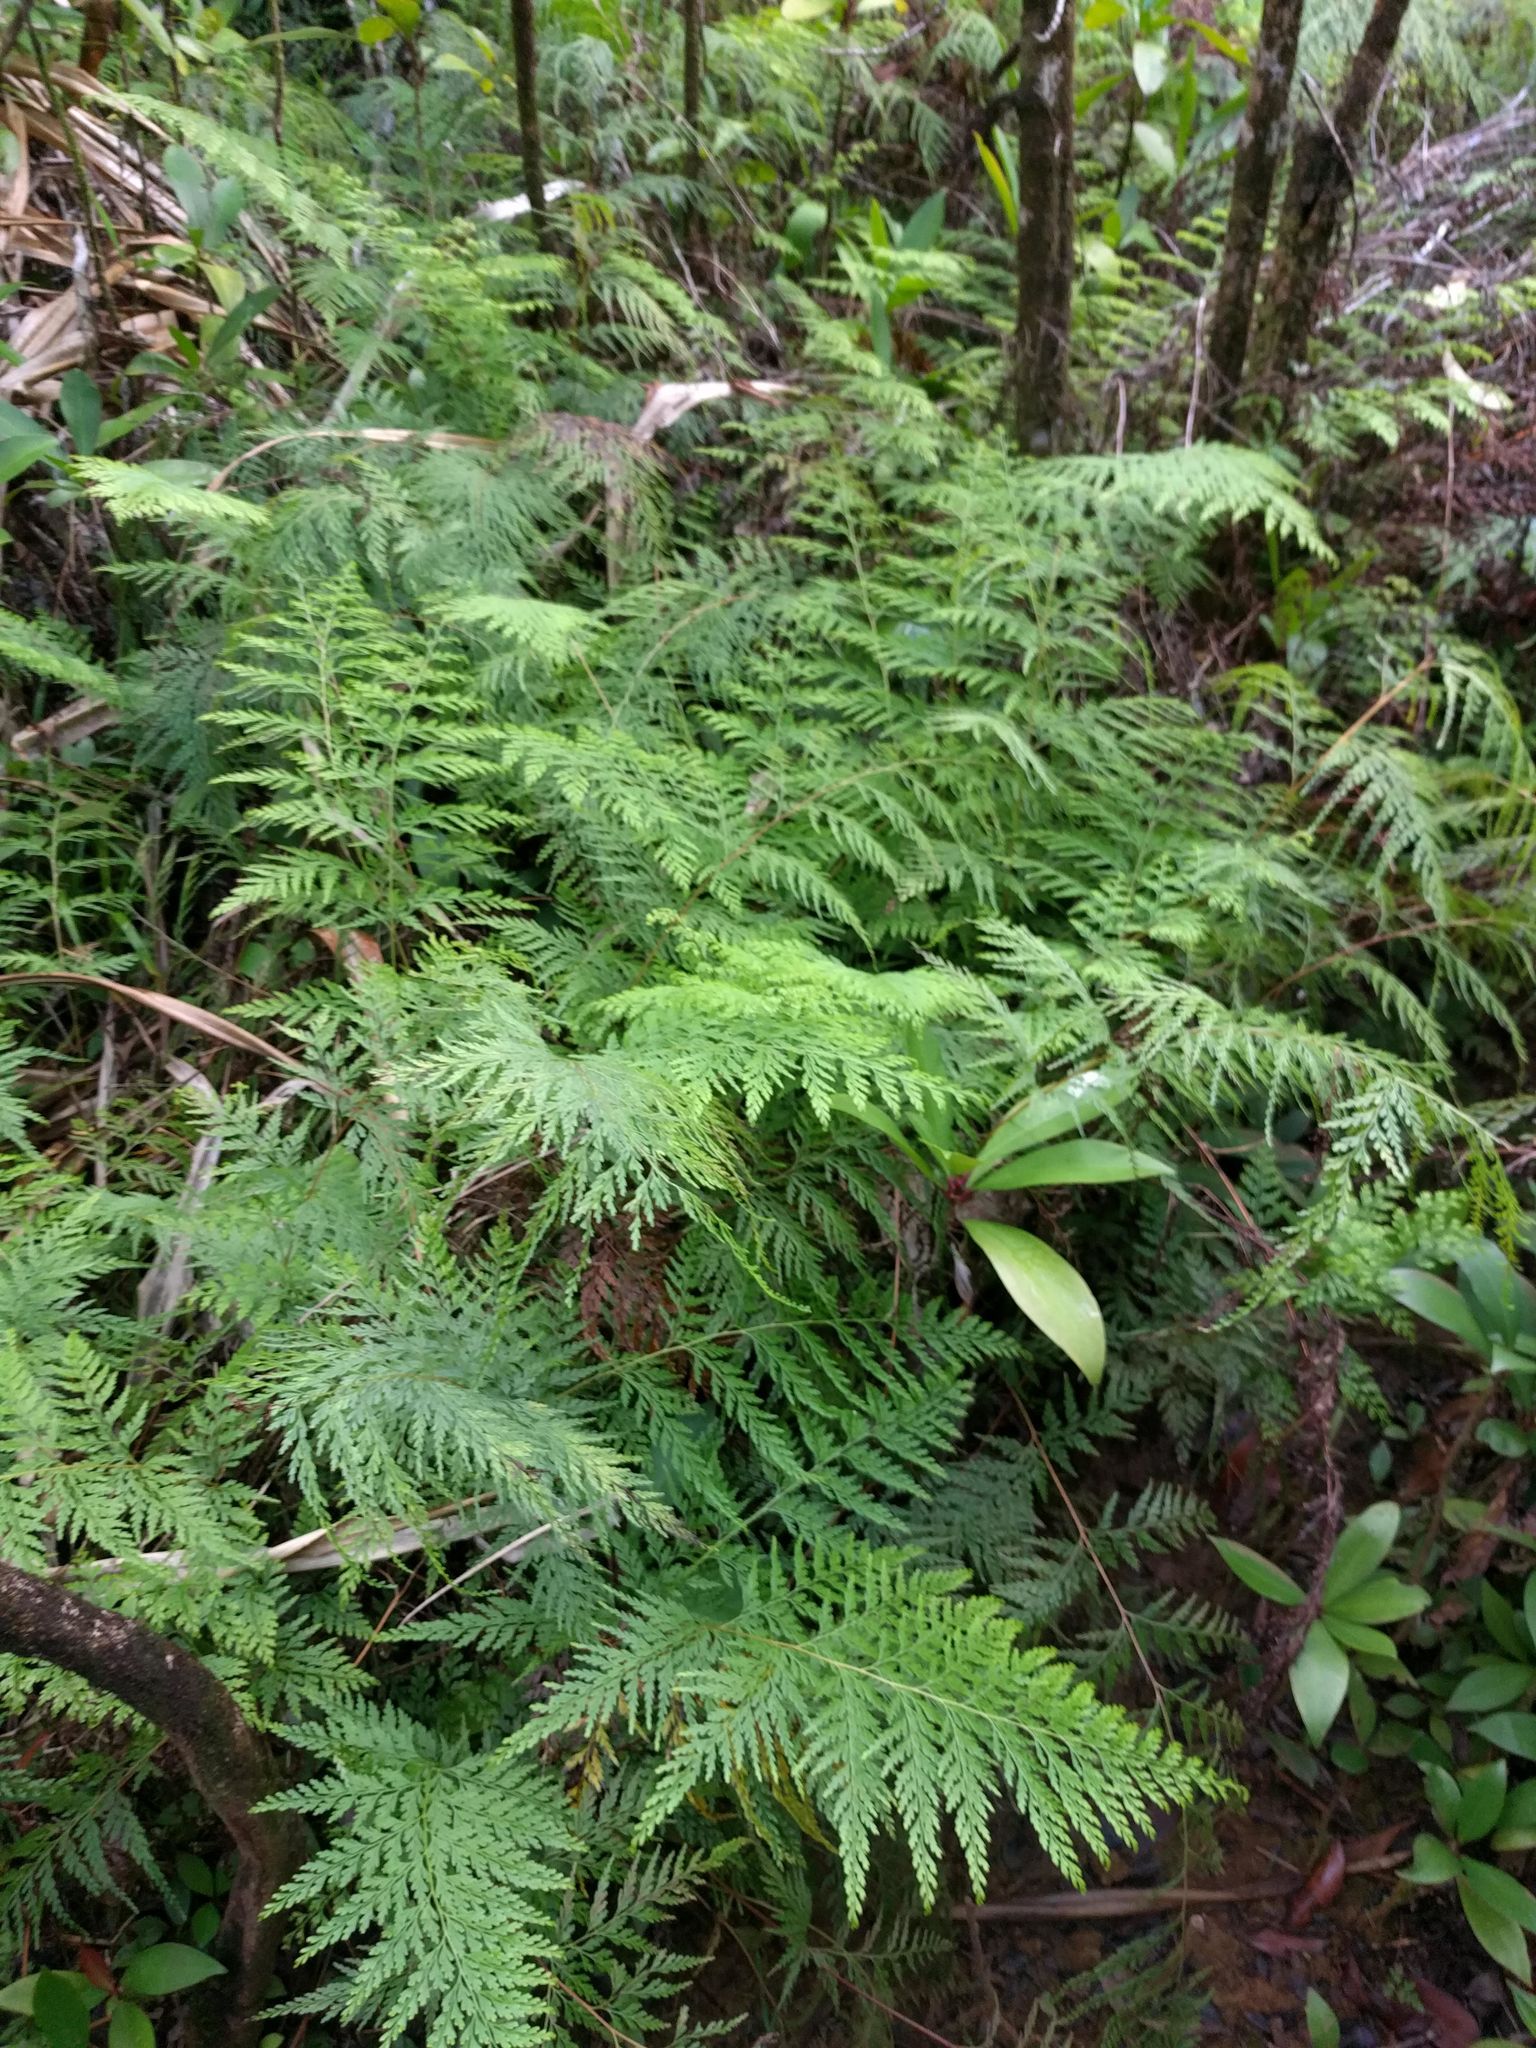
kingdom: Plantae
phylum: Tracheophyta
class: Polypodiopsida
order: Polypodiales
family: Lindsaeaceae
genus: Odontosoria
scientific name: Odontosoria chinensis
